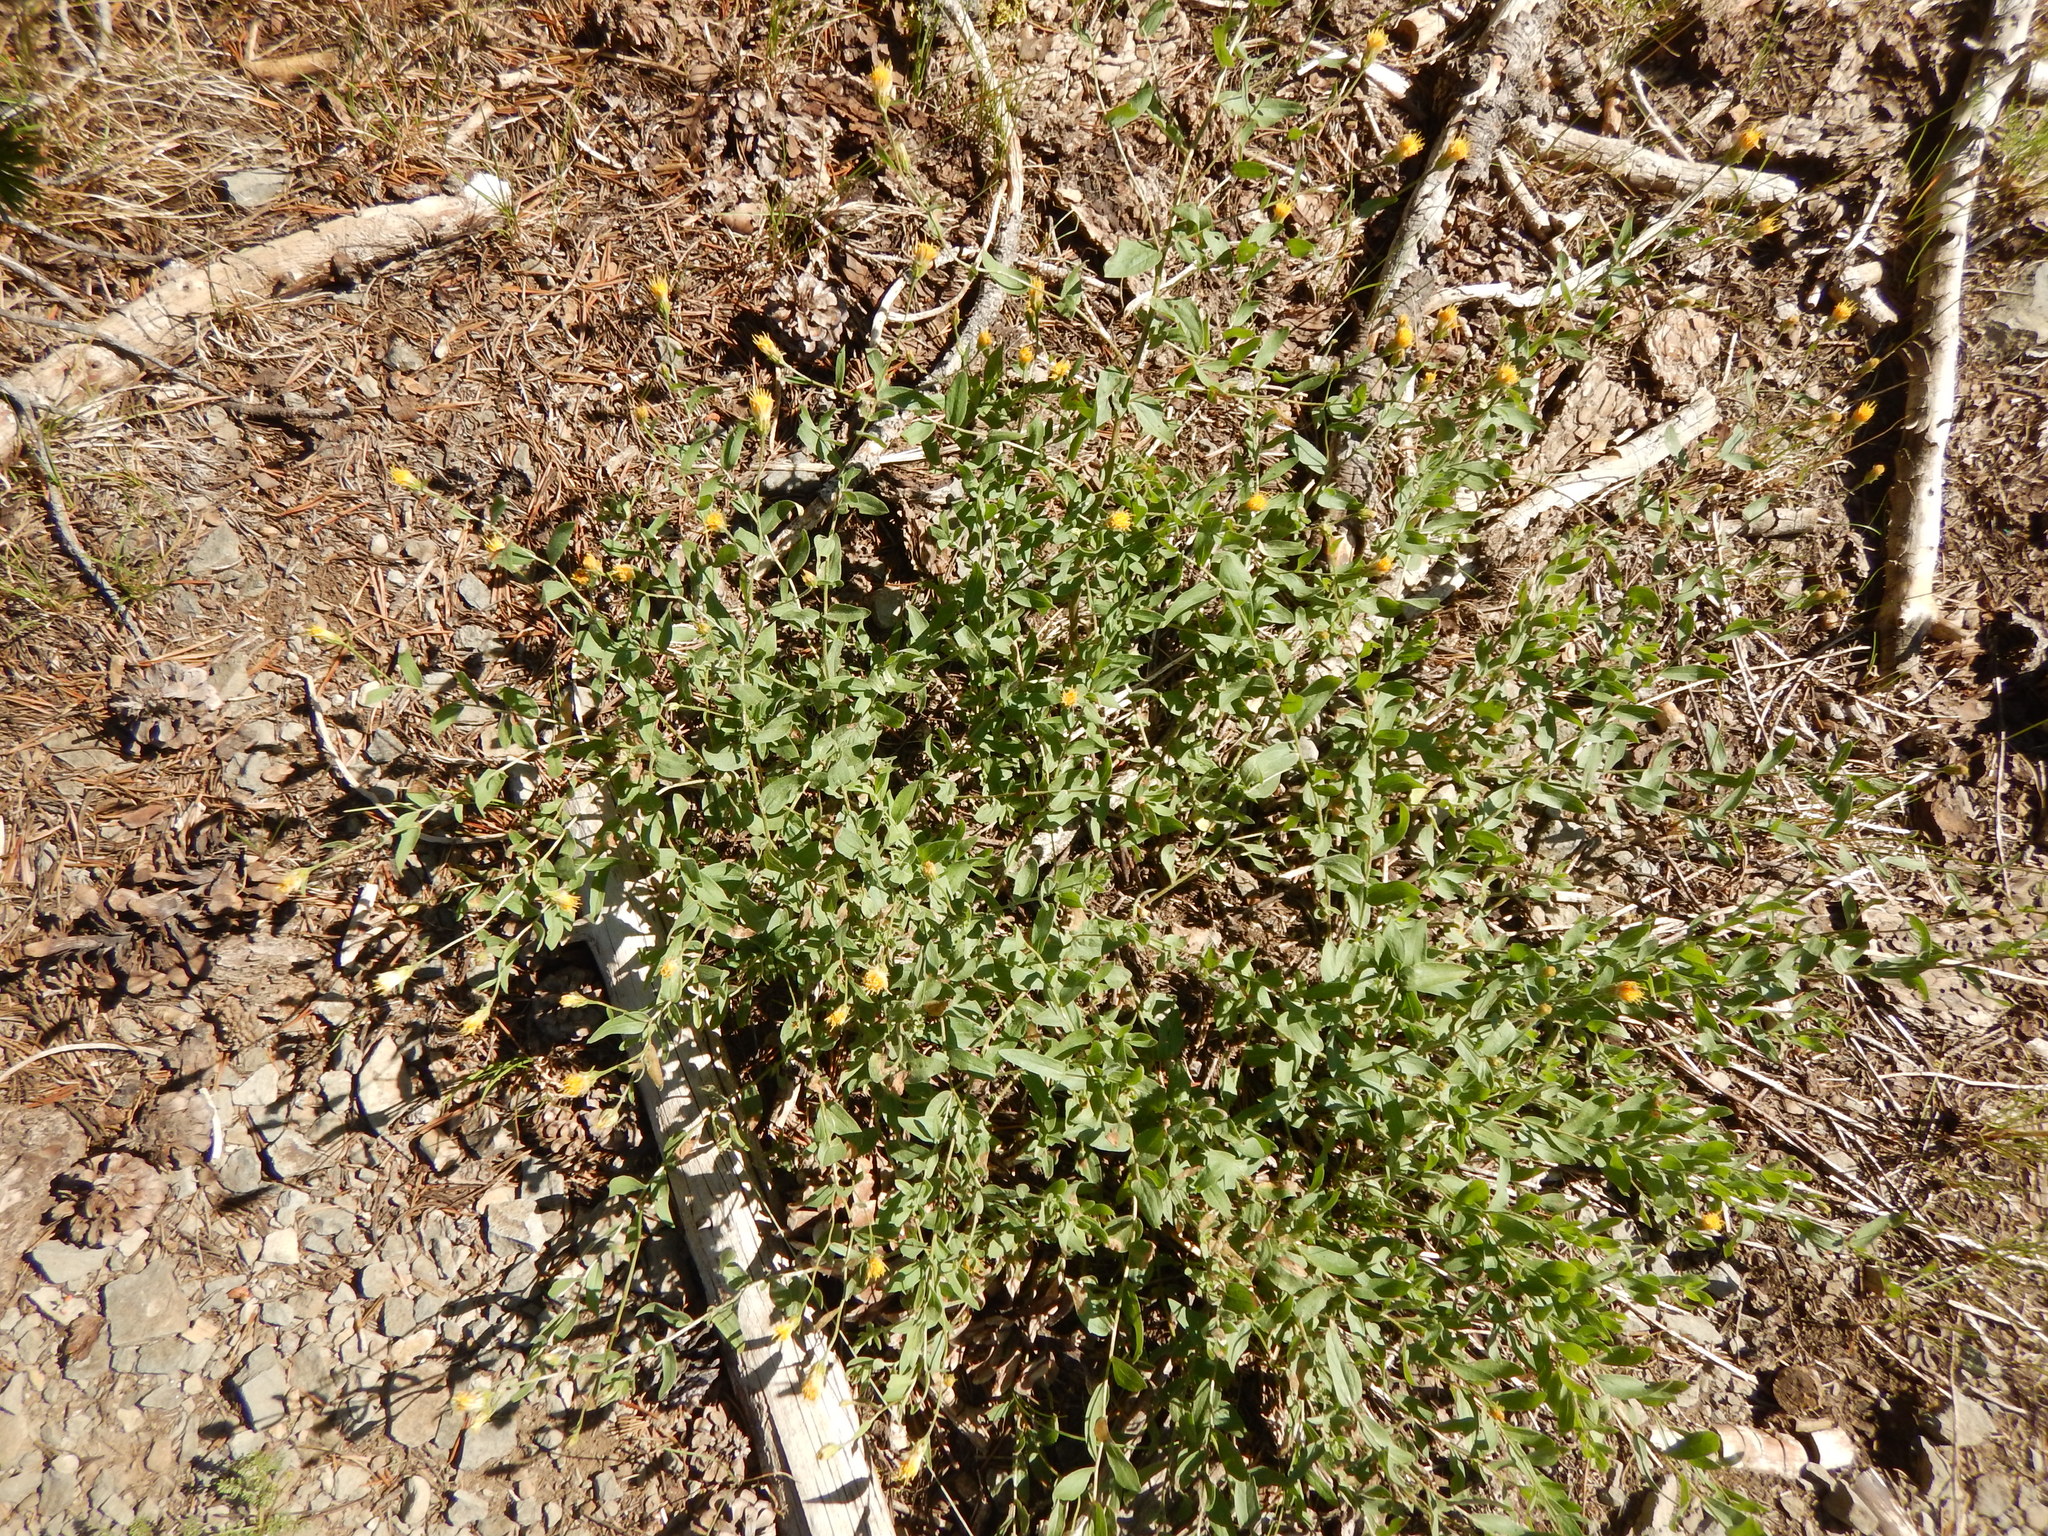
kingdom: Plantae
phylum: Tracheophyta
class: Magnoliopsida
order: Asterales
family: Asteraceae
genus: Eucephalus
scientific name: Eucephalus breweri
